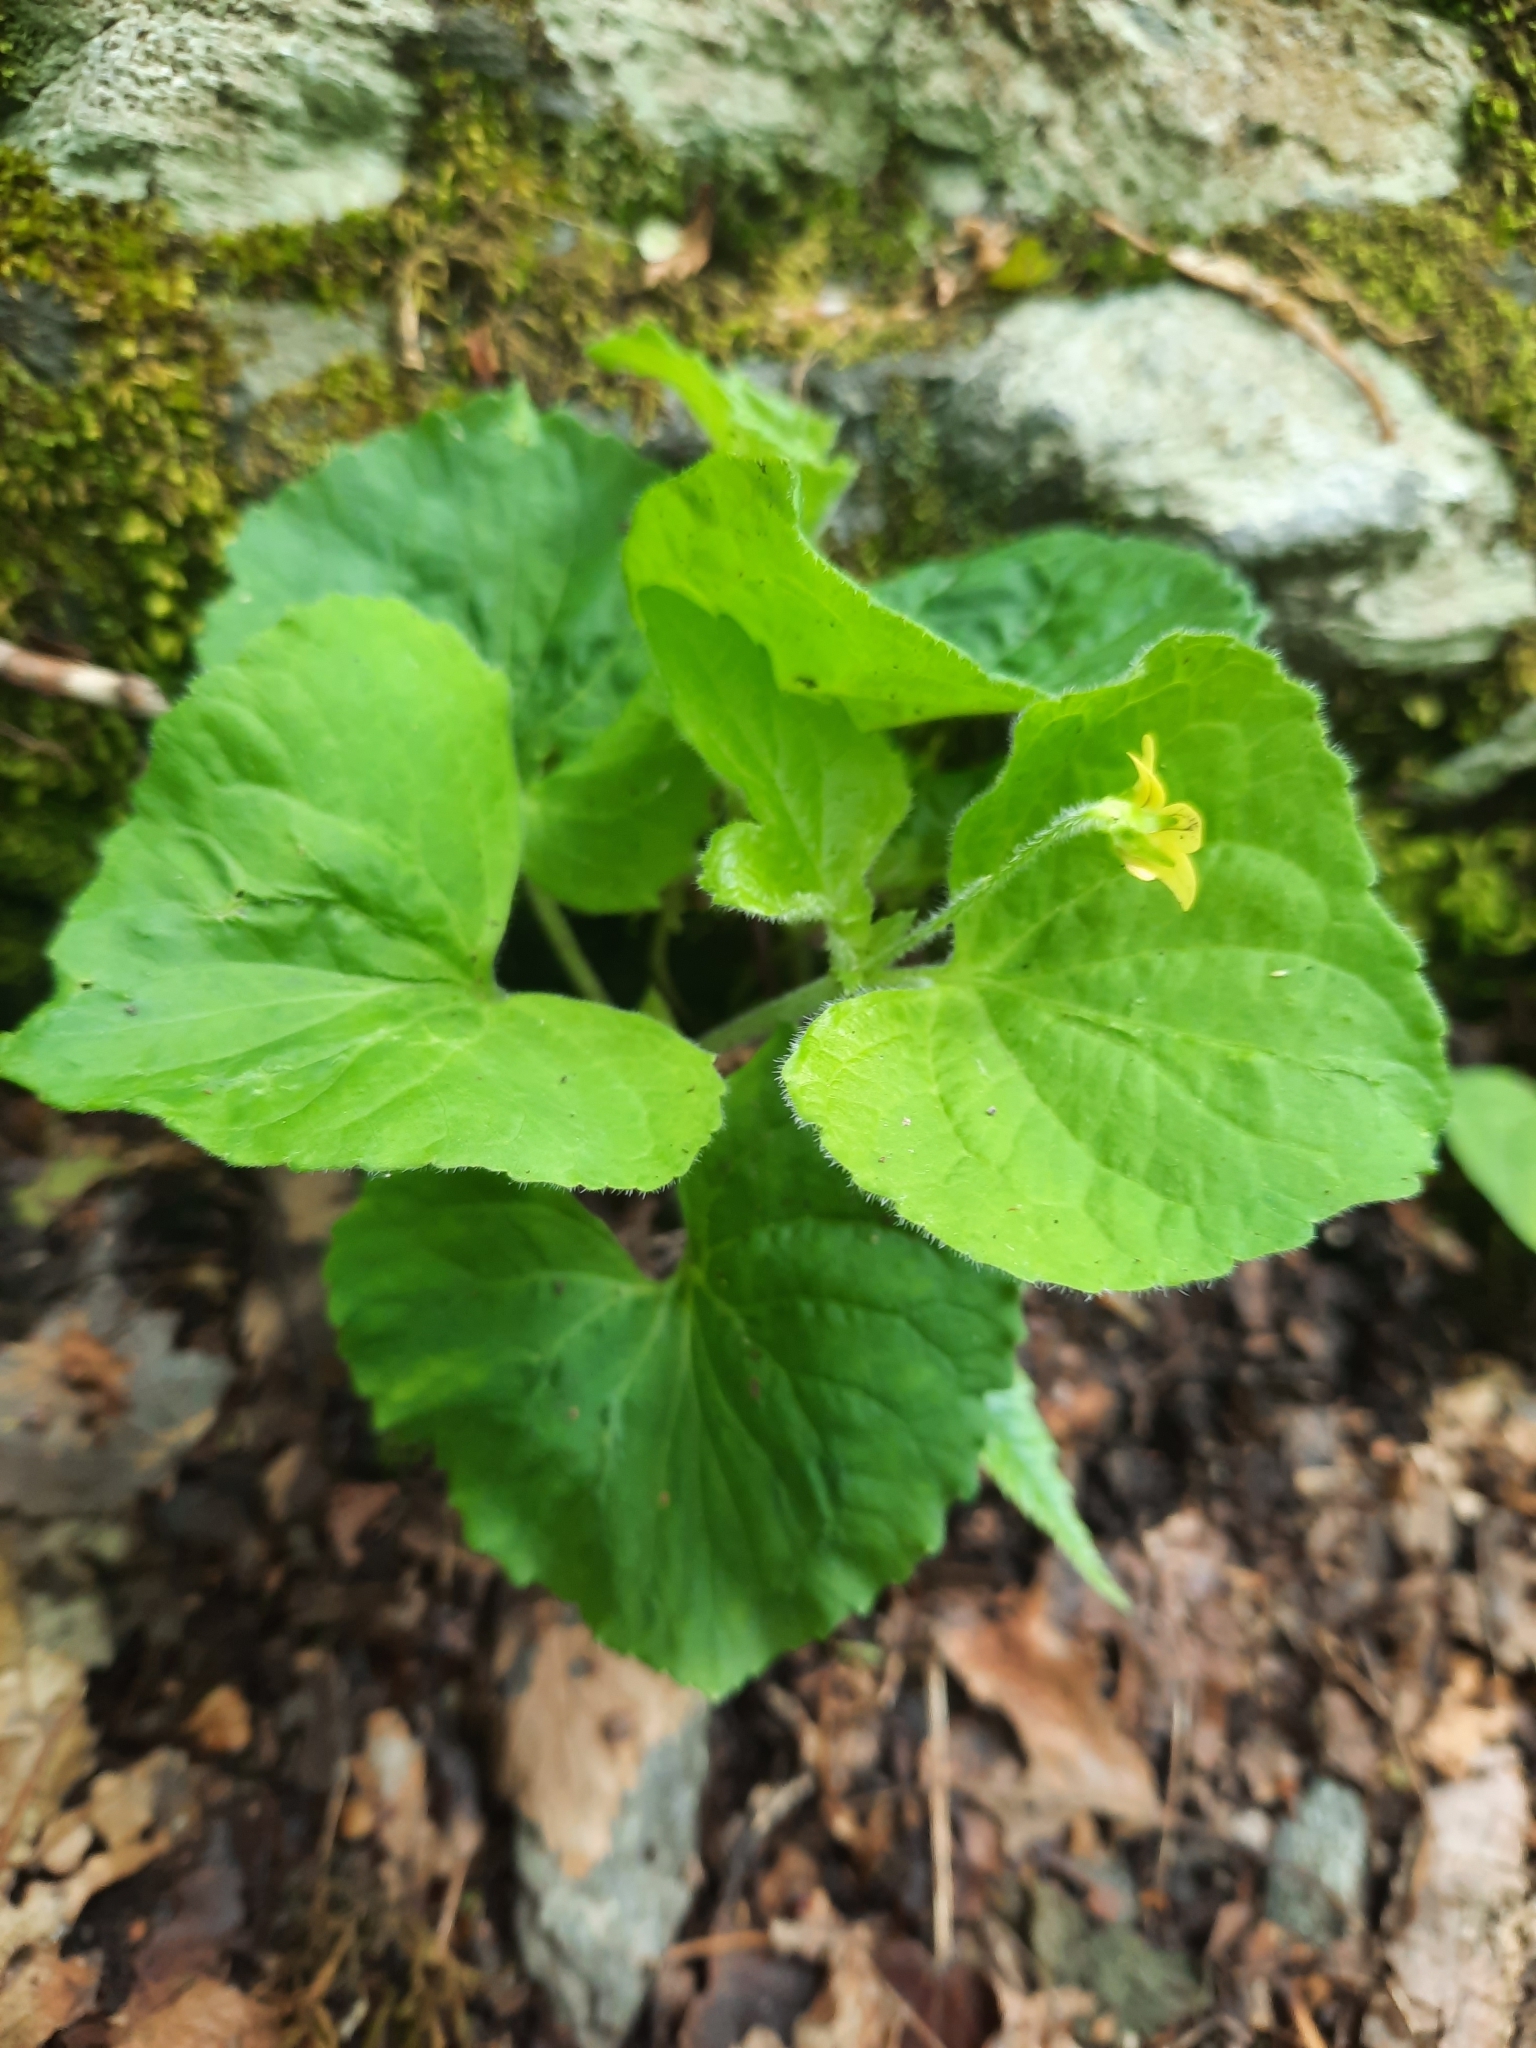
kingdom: Plantae
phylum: Tracheophyta
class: Magnoliopsida
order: Malpighiales
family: Violaceae
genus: Viola
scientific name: Viola eriocarpa
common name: Smooth yellow violet
